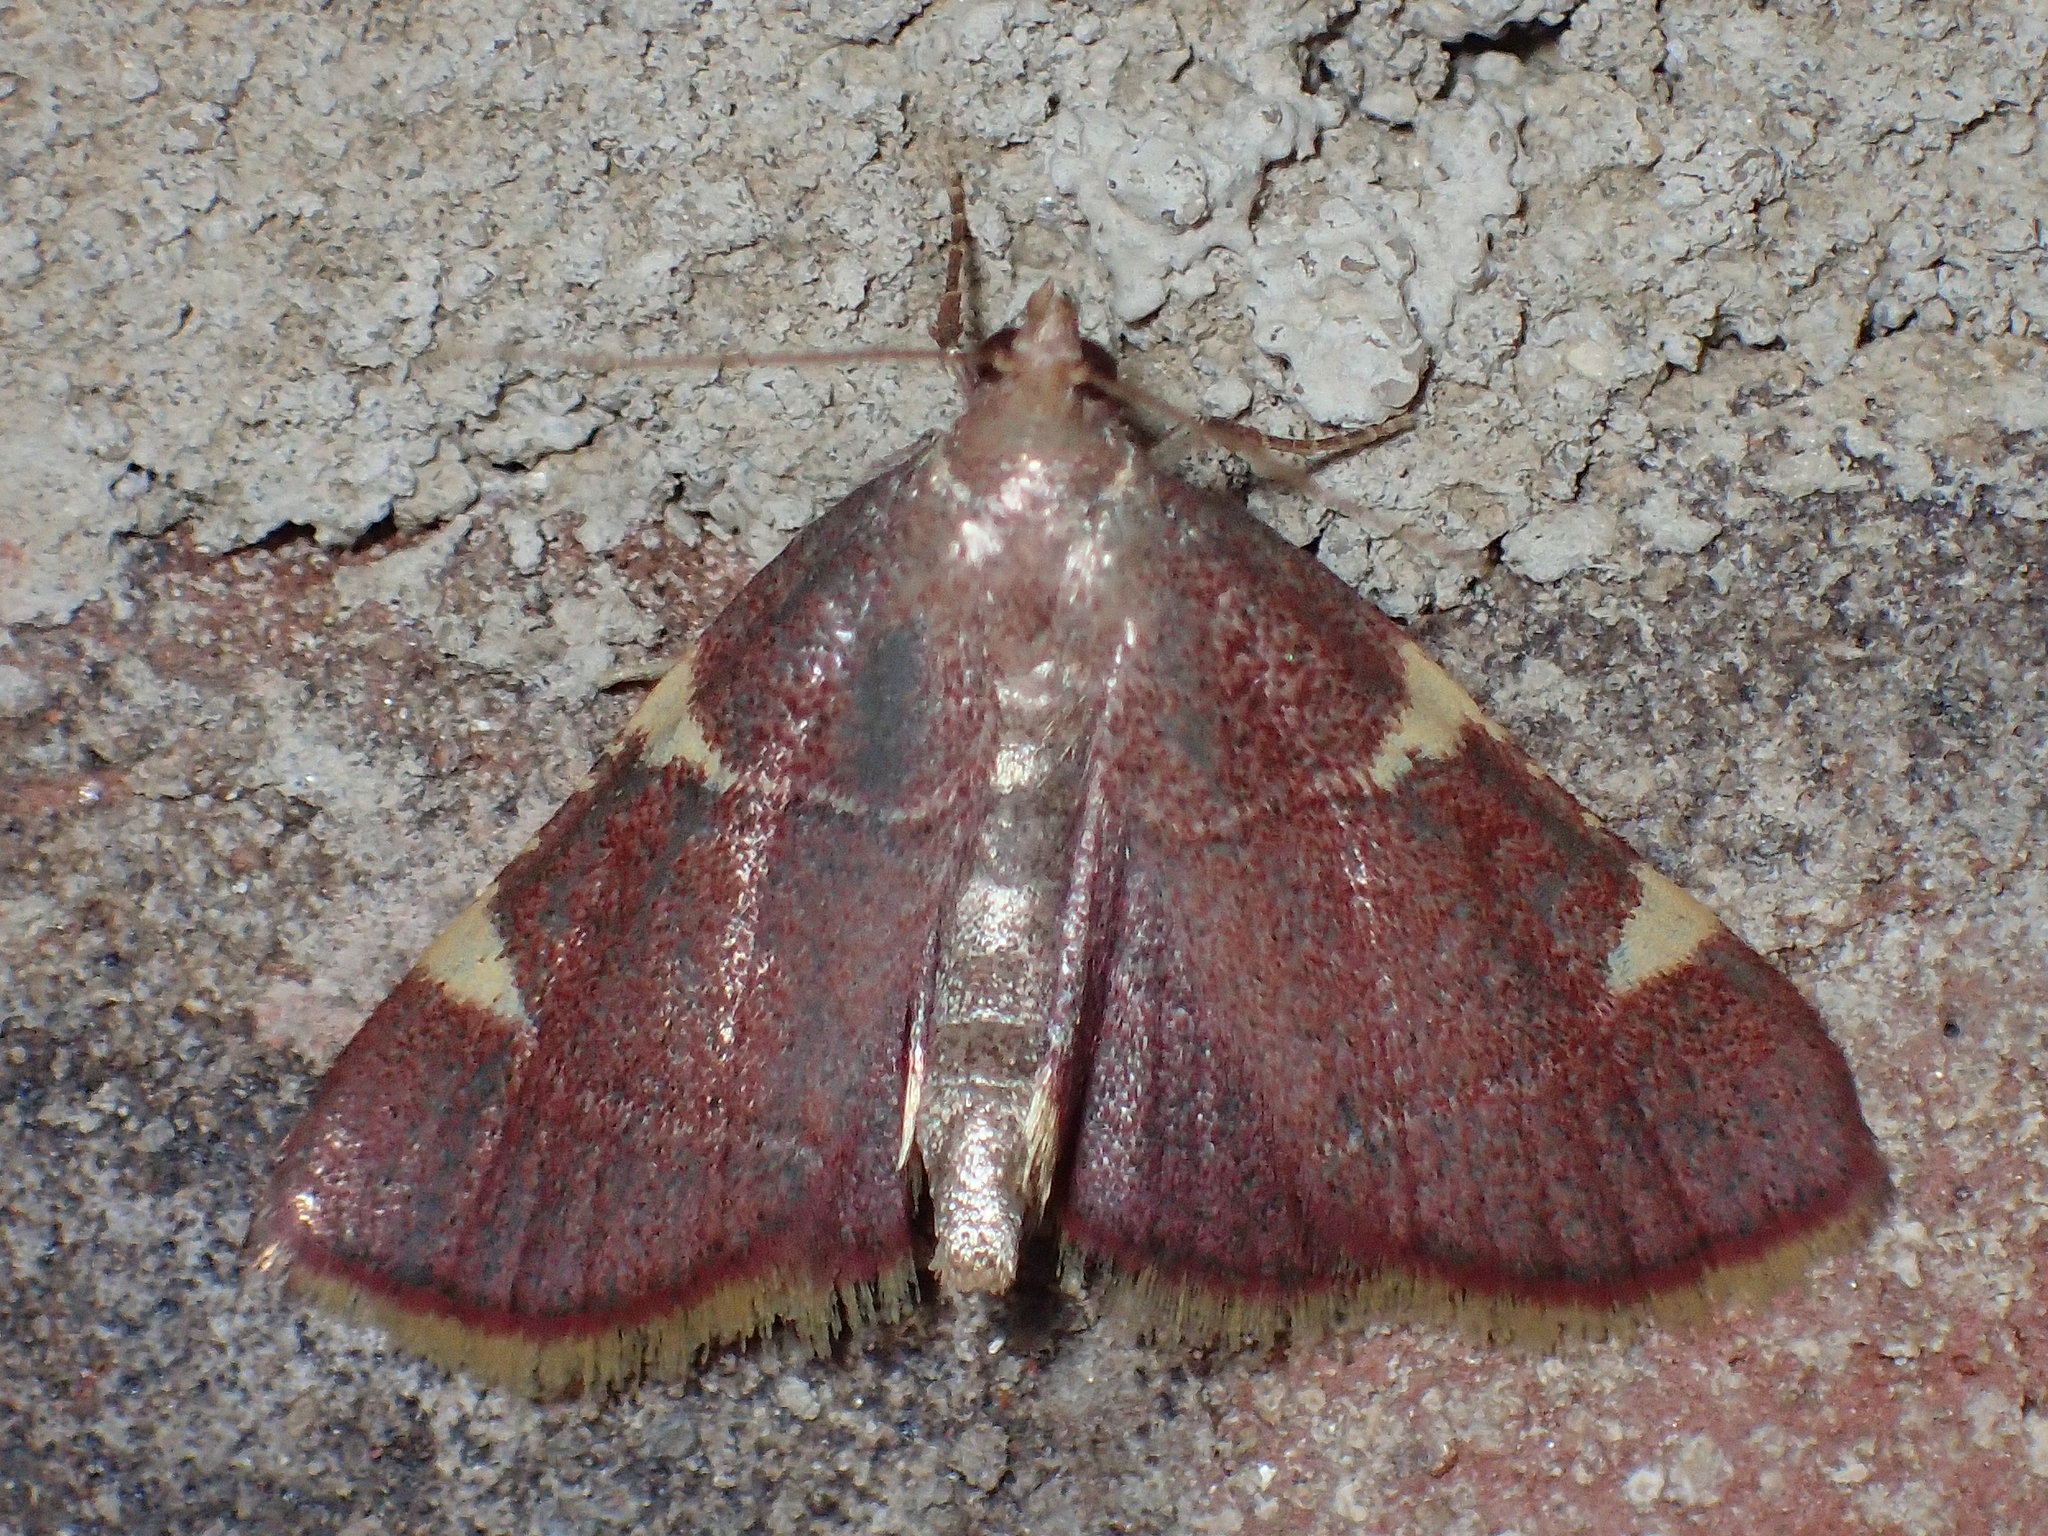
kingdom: Animalia
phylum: Arthropoda
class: Insecta
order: Lepidoptera
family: Pyralidae
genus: Hypsopygia
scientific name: Hypsopygia olinalis
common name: Yellow-fringed dolichomia moth
